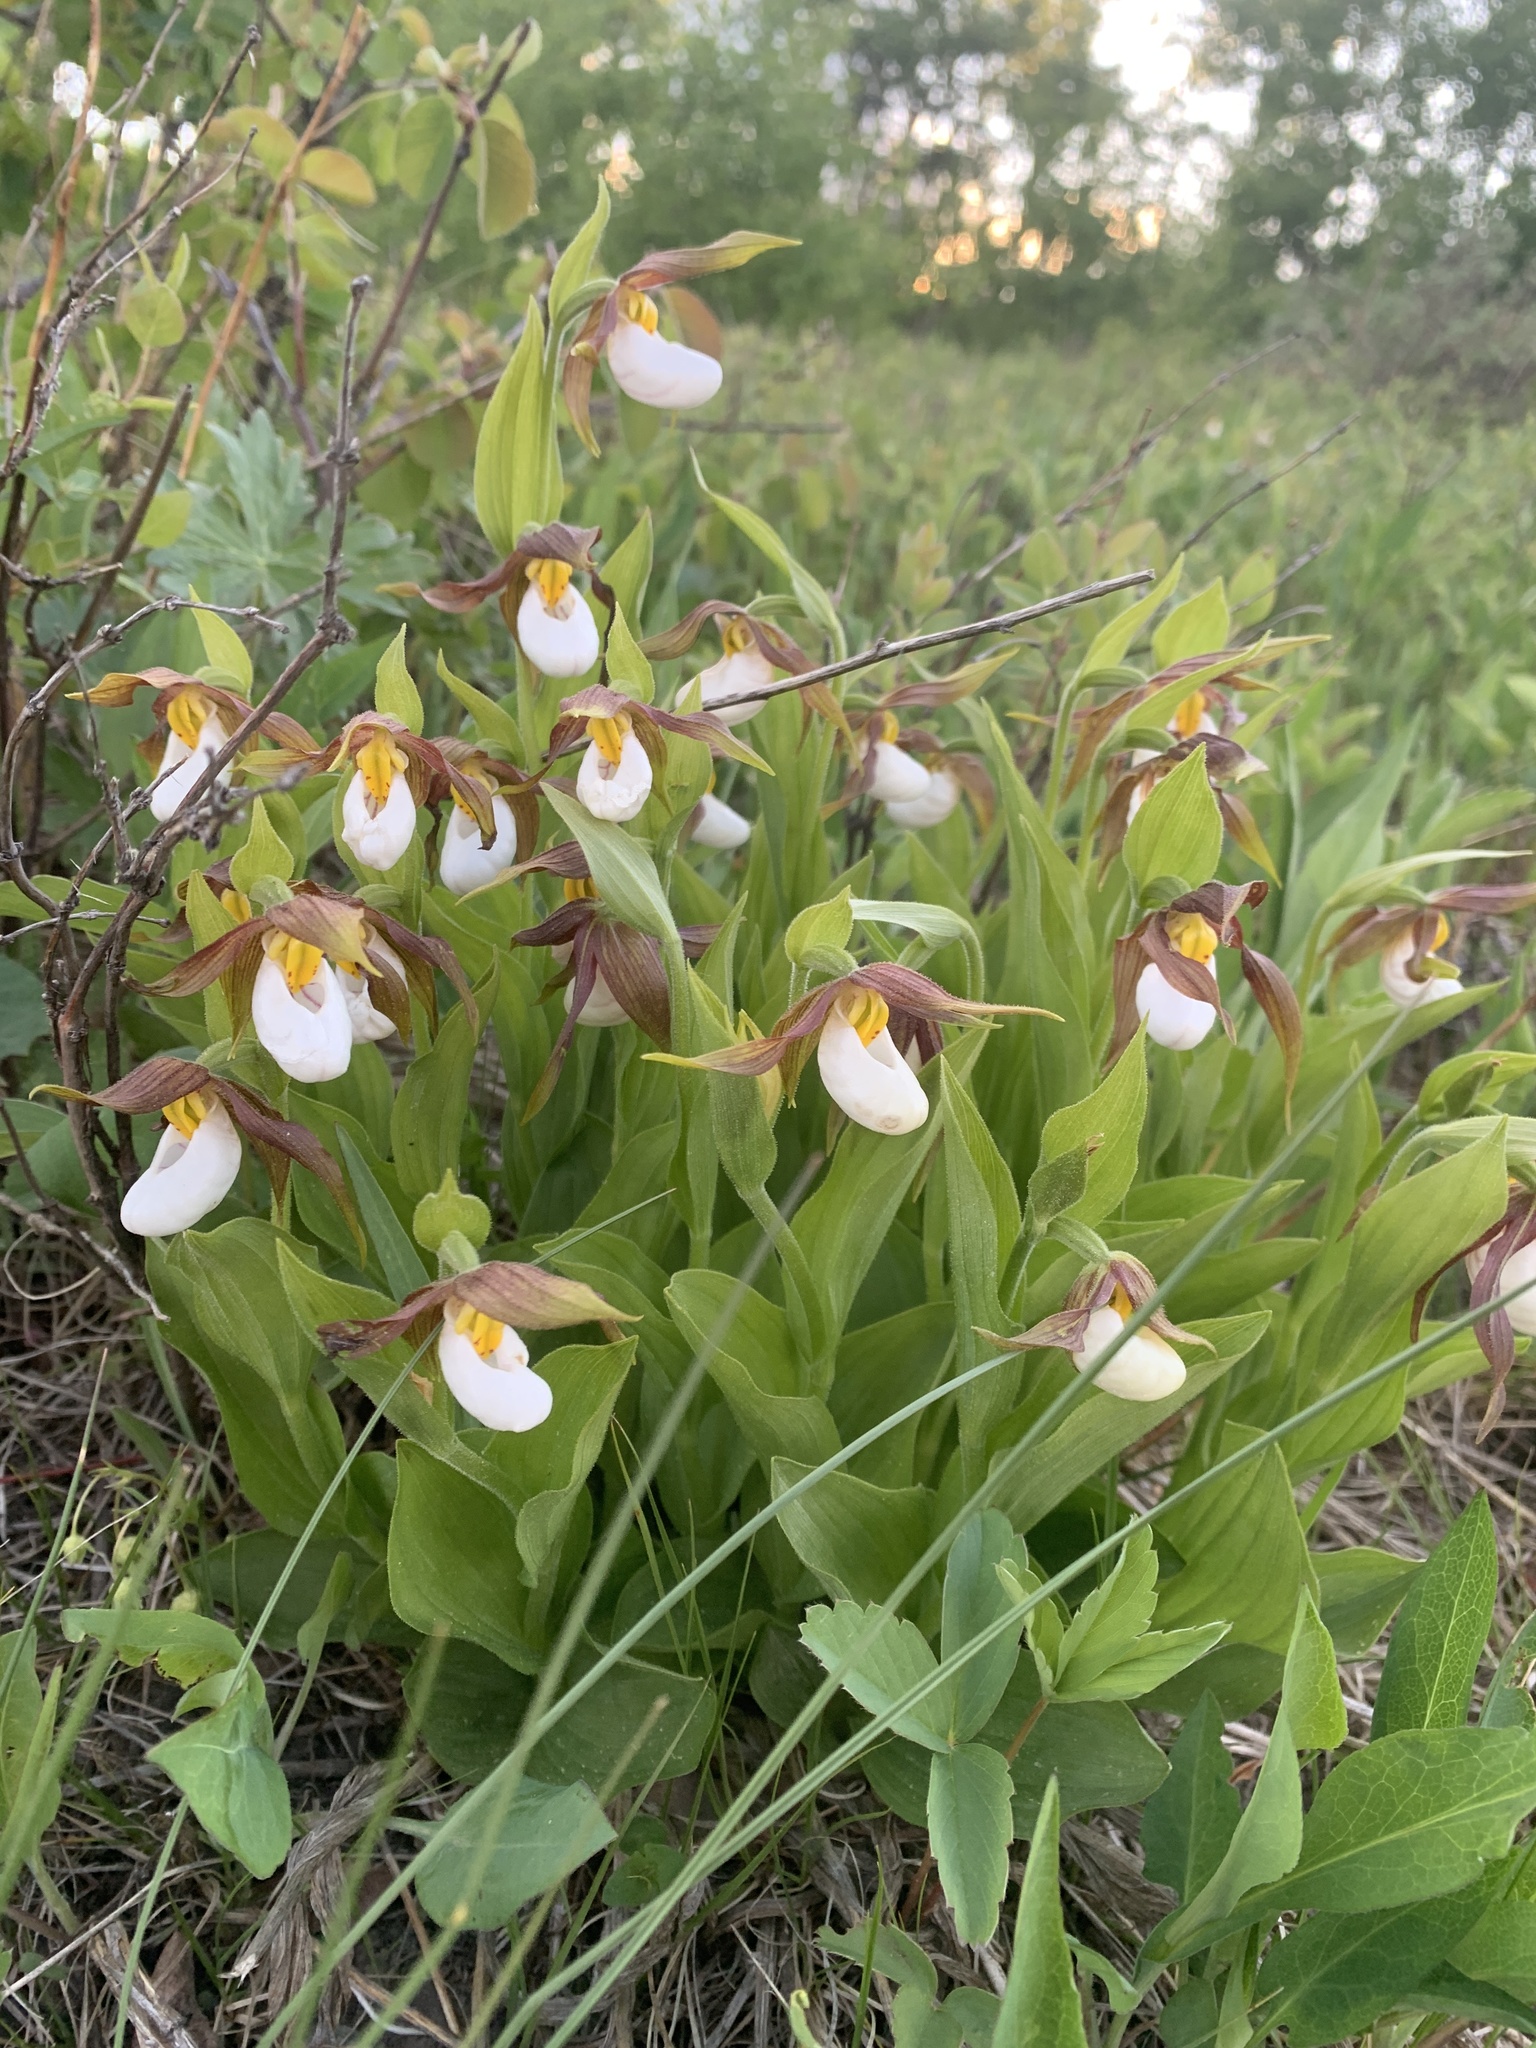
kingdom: Plantae
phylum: Tracheophyta
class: Liliopsida
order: Asparagales
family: Orchidaceae
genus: Cypripedium
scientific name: Cypripedium montanum
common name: Mountain lady's-slipper
